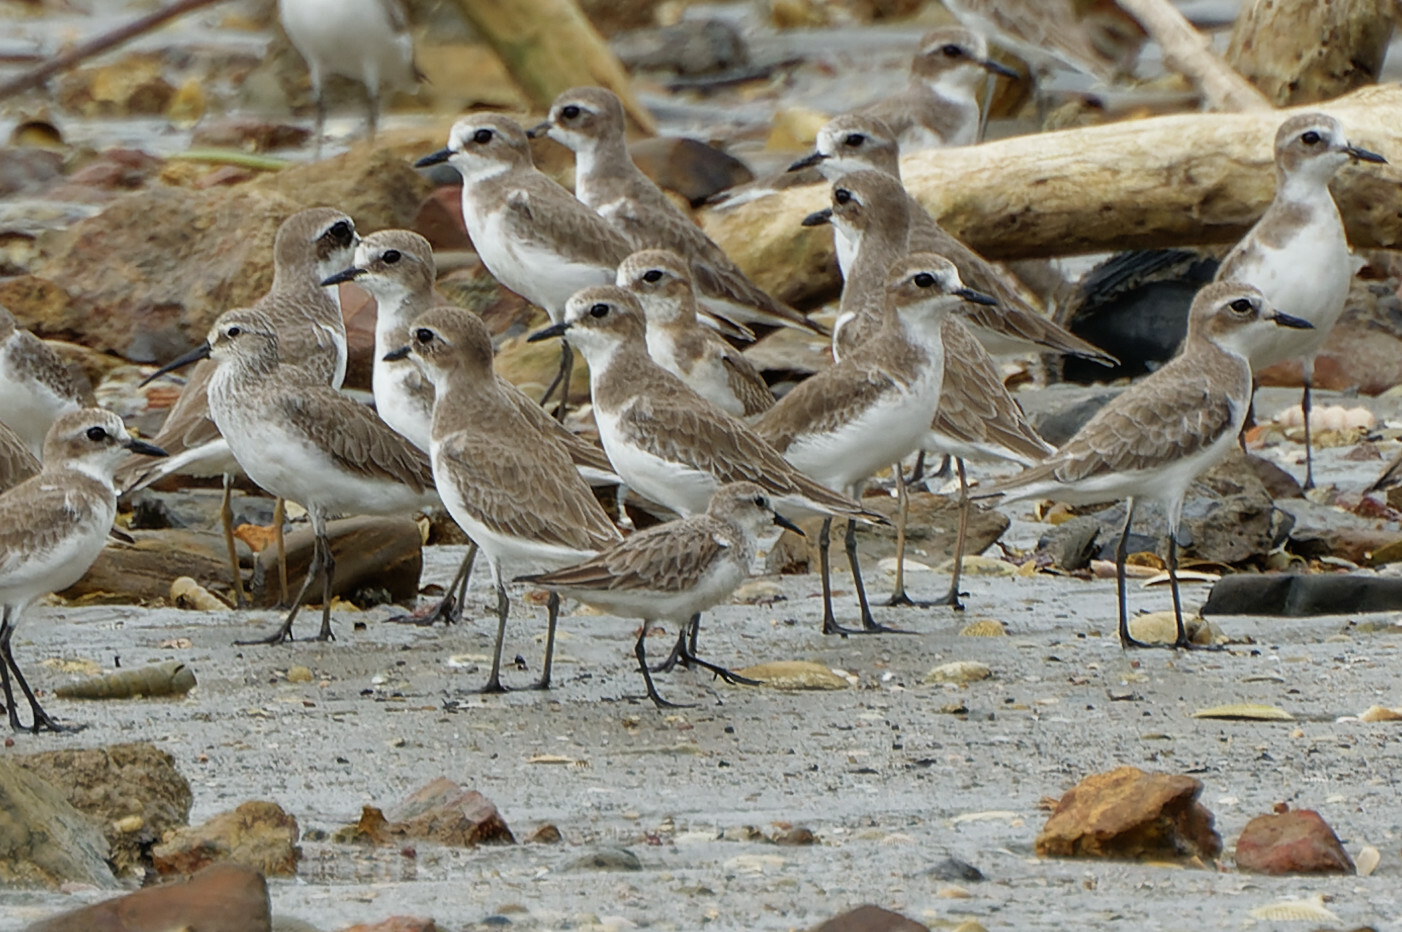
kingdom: Animalia
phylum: Chordata
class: Aves
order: Charadriiformes
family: Scolopacidae
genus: Calidris
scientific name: Calidris ruficollis
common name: Red-necked stint
